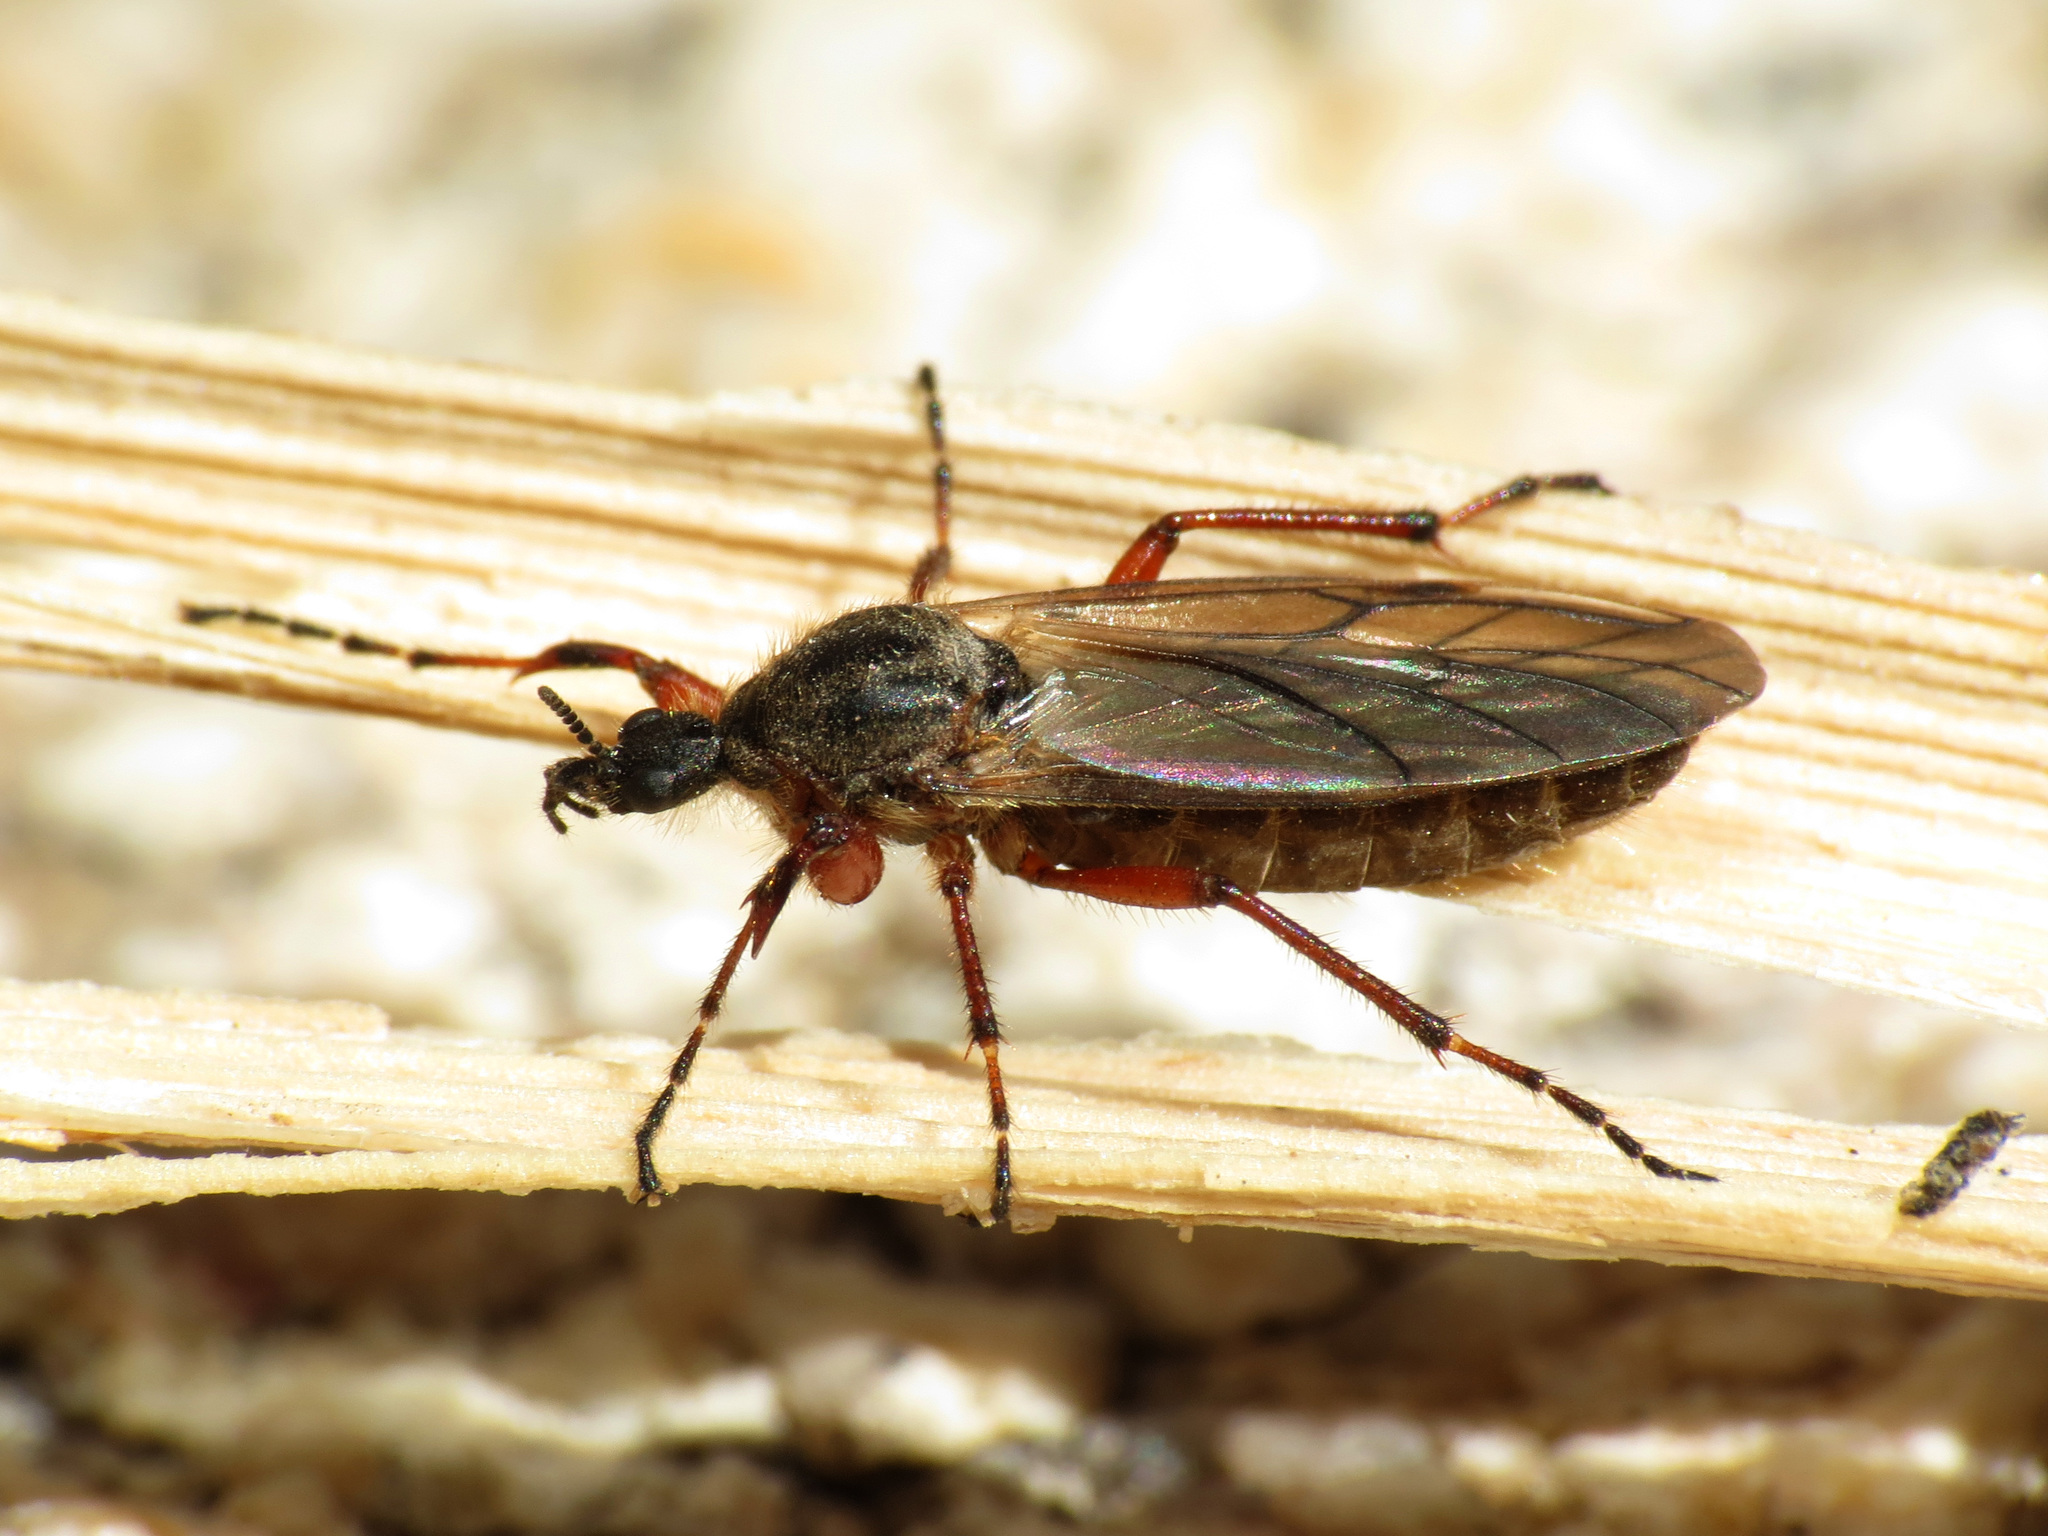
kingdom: Animalia
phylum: Arthropoda
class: Insecta
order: Diptera
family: Bibionidae
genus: Bibio
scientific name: Bibio xanthopus
